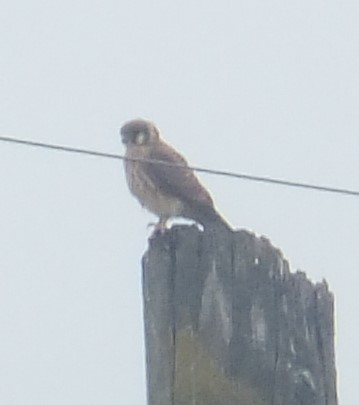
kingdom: Animalia
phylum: Chordata
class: Aves
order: Falconiformes
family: Falconidae
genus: Falco
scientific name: Falco sparverius
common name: American kestrel
